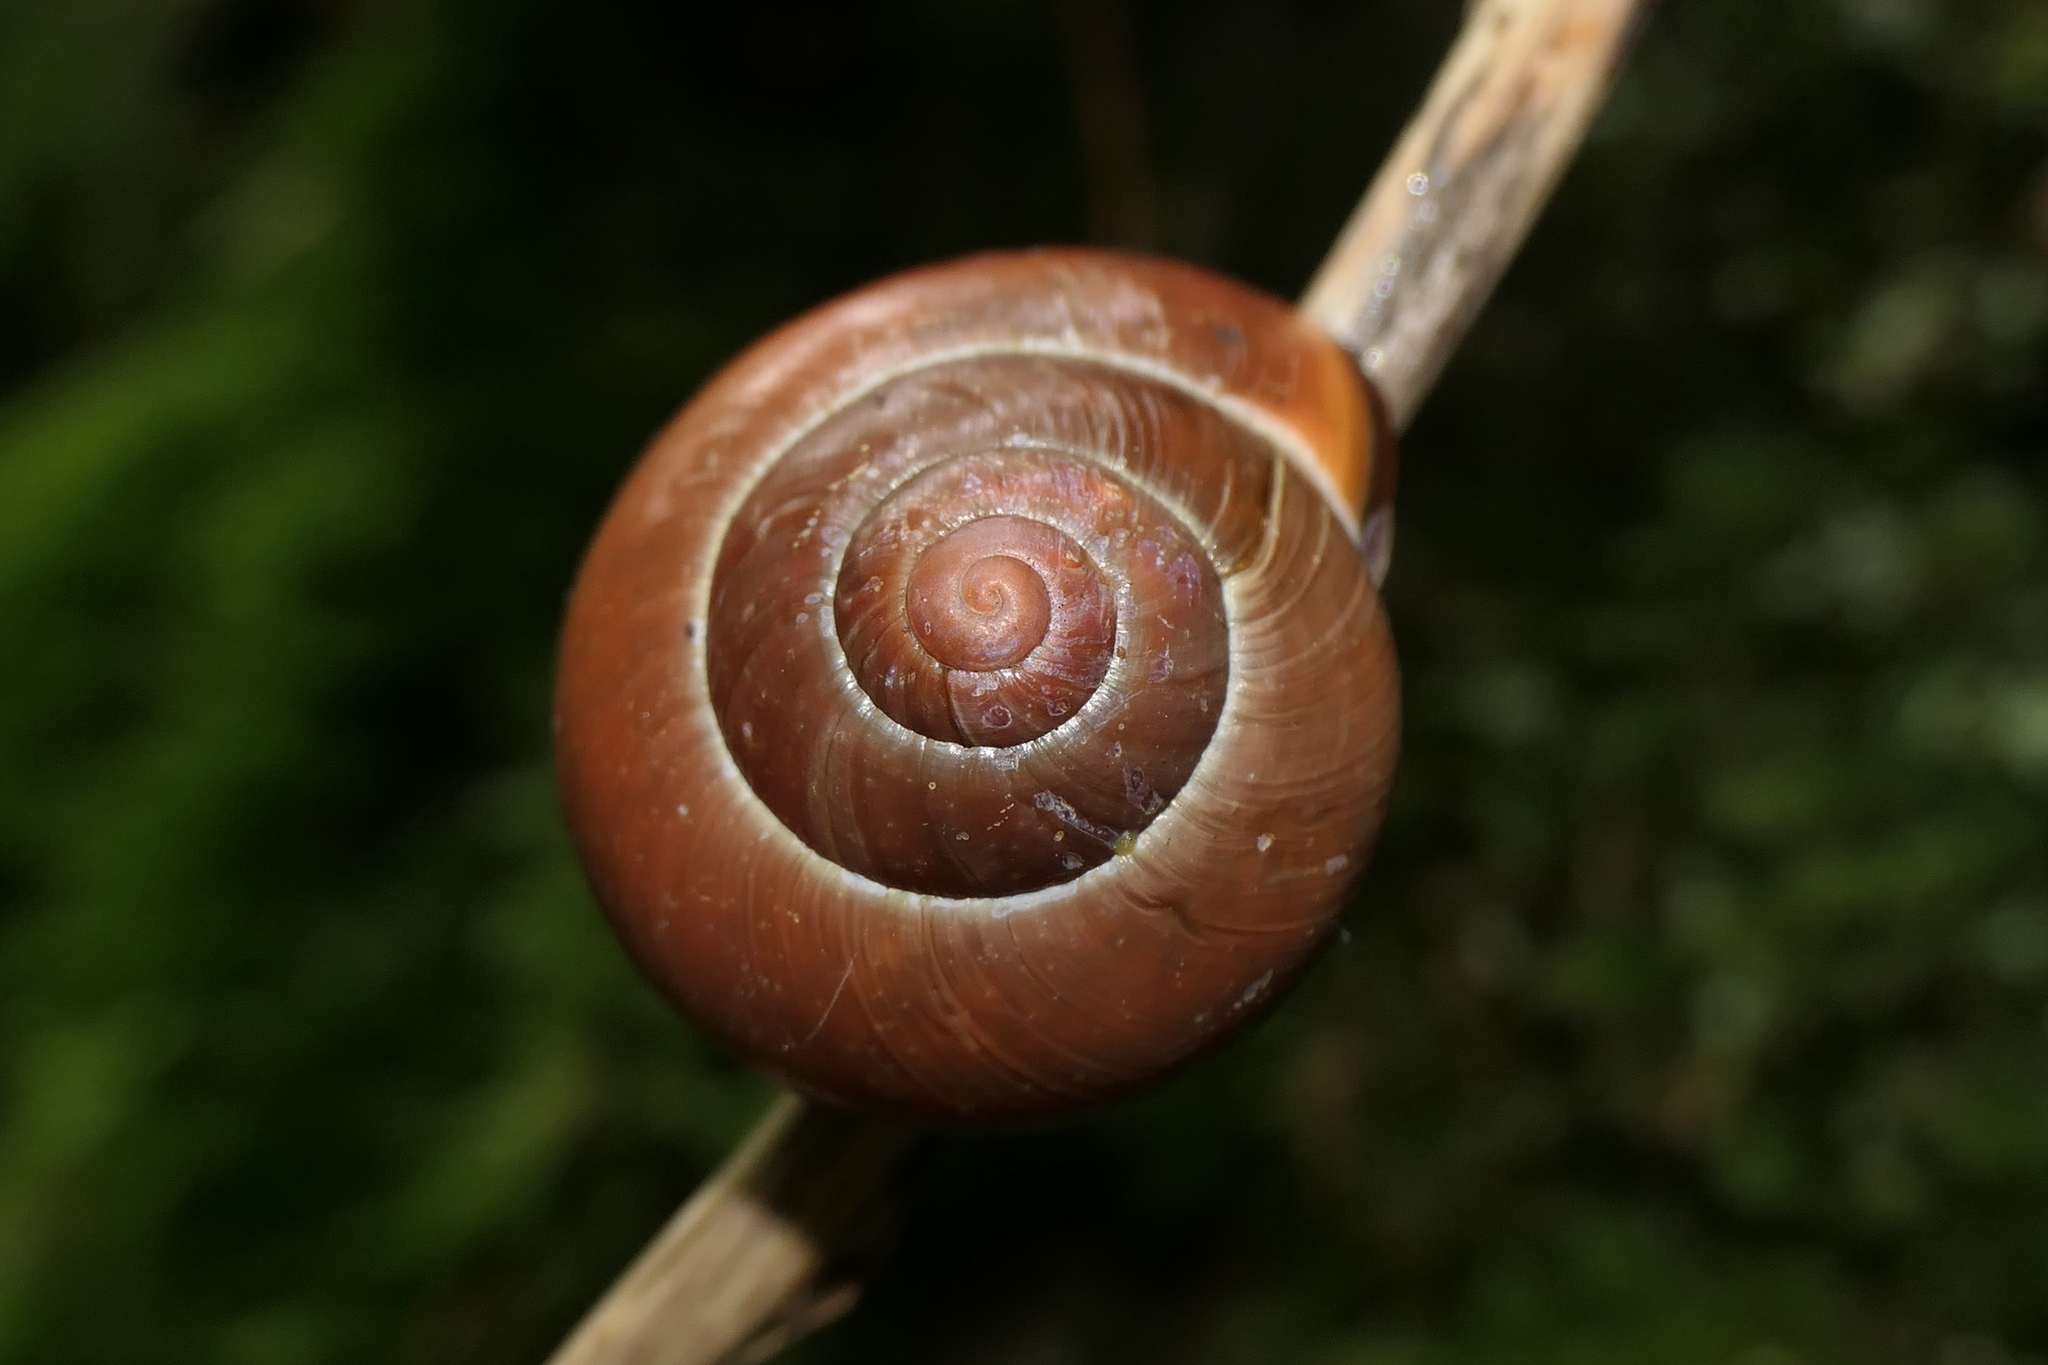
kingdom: Animalia
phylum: Mollusca
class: Gastropoda
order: Stylommatophora
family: Helicidae
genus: Cepaea
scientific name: Cepaea nemoralis
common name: Grovesnail
